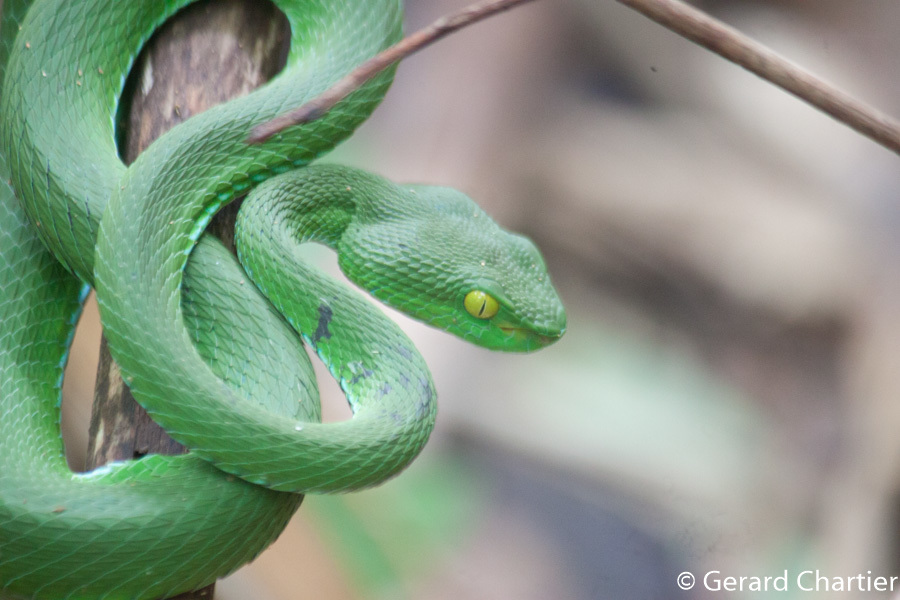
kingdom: Animalia
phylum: Chordata
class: Squamata
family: Viperidae
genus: Trimeresurus
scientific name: Trimeresurus cardamomensis
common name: Cardamom mountains green pitviper
